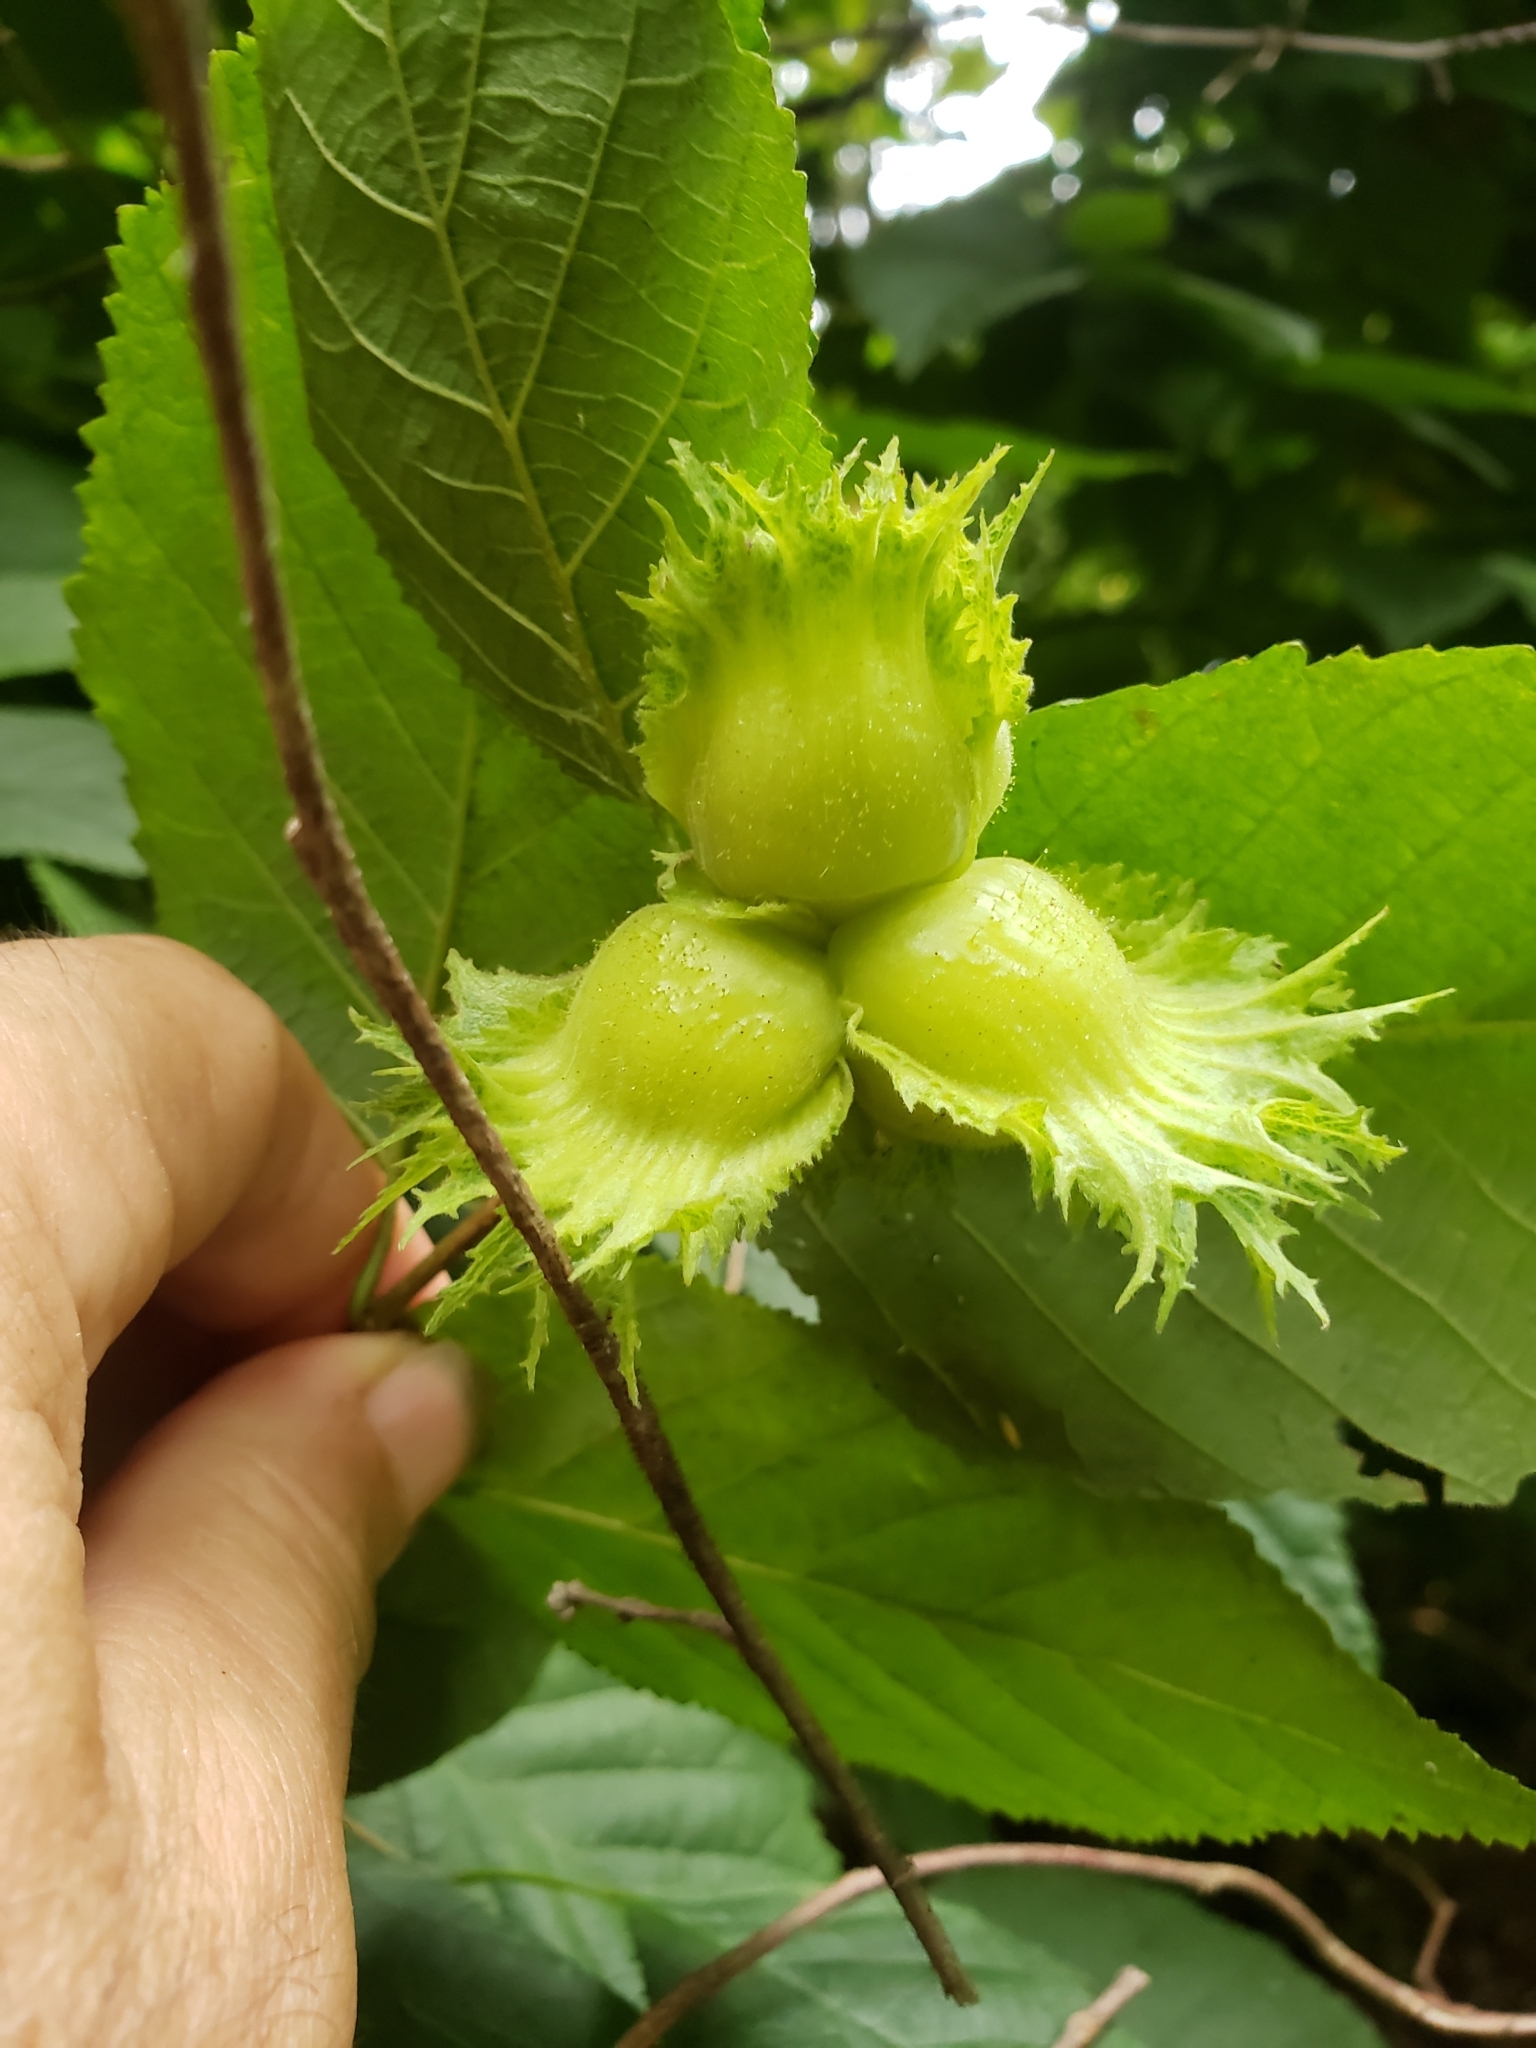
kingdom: Plantae
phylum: Tracheophyta
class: Magnoliopsida
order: Fagales
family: Betulaceae
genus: Corylus
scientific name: Corylus americana
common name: American hazel
